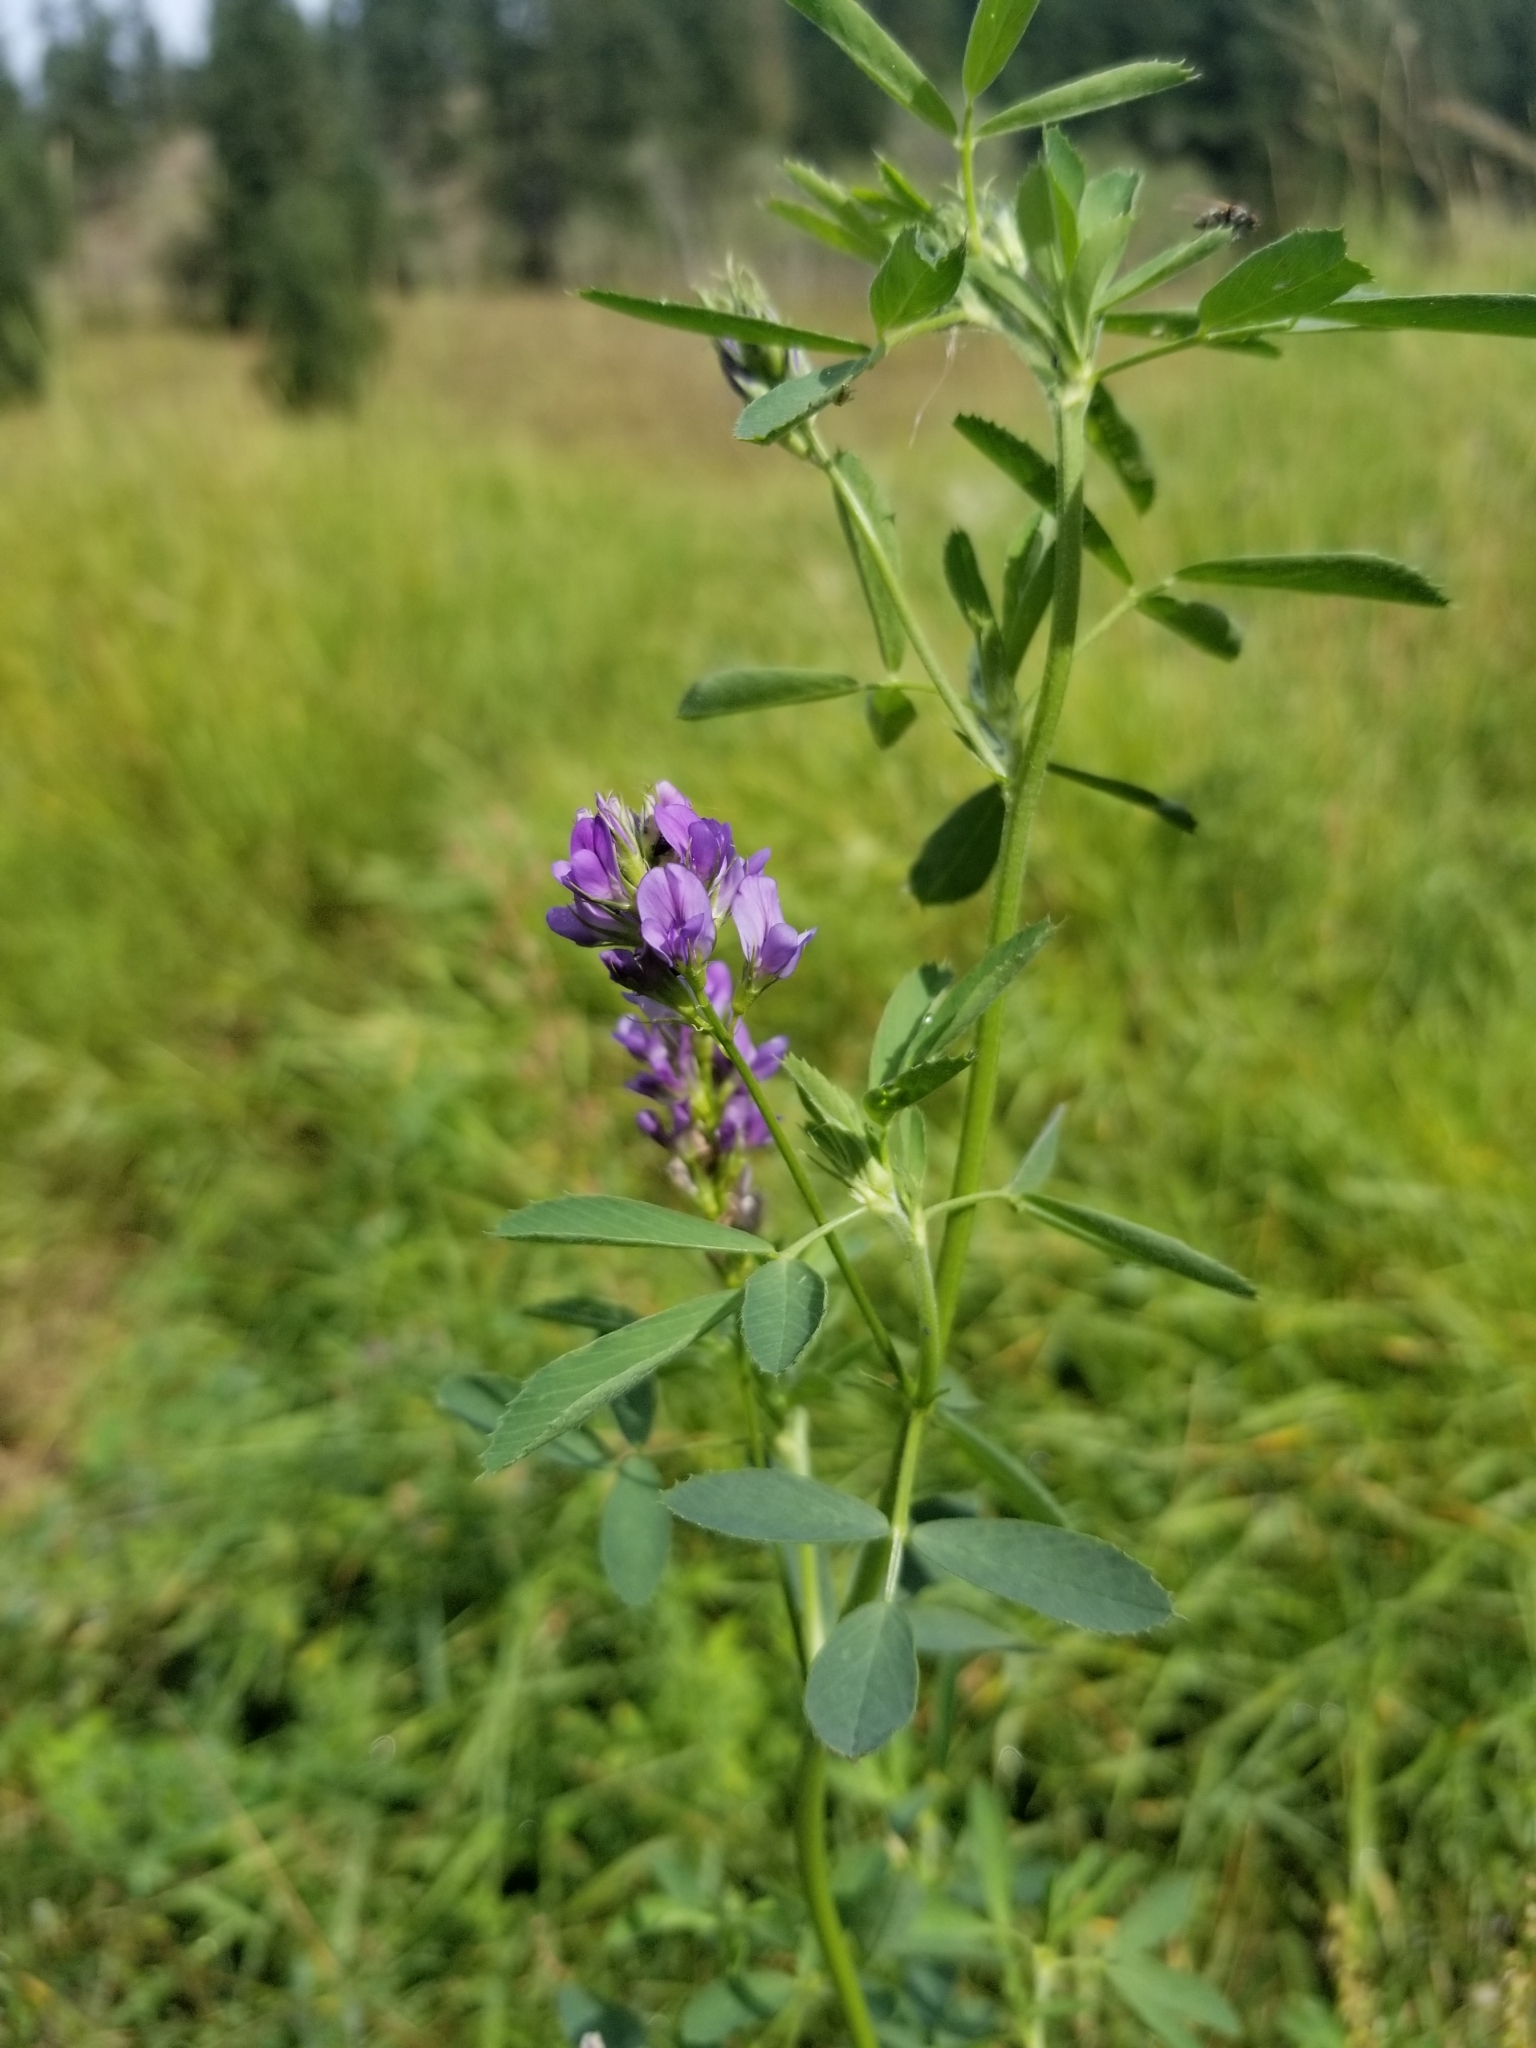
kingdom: Plantae
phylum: Tracheophyta
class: Magnoliopsida
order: Fabales
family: Fabaceae
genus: Medicago
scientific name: Medicago sativa
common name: Alfalfa
